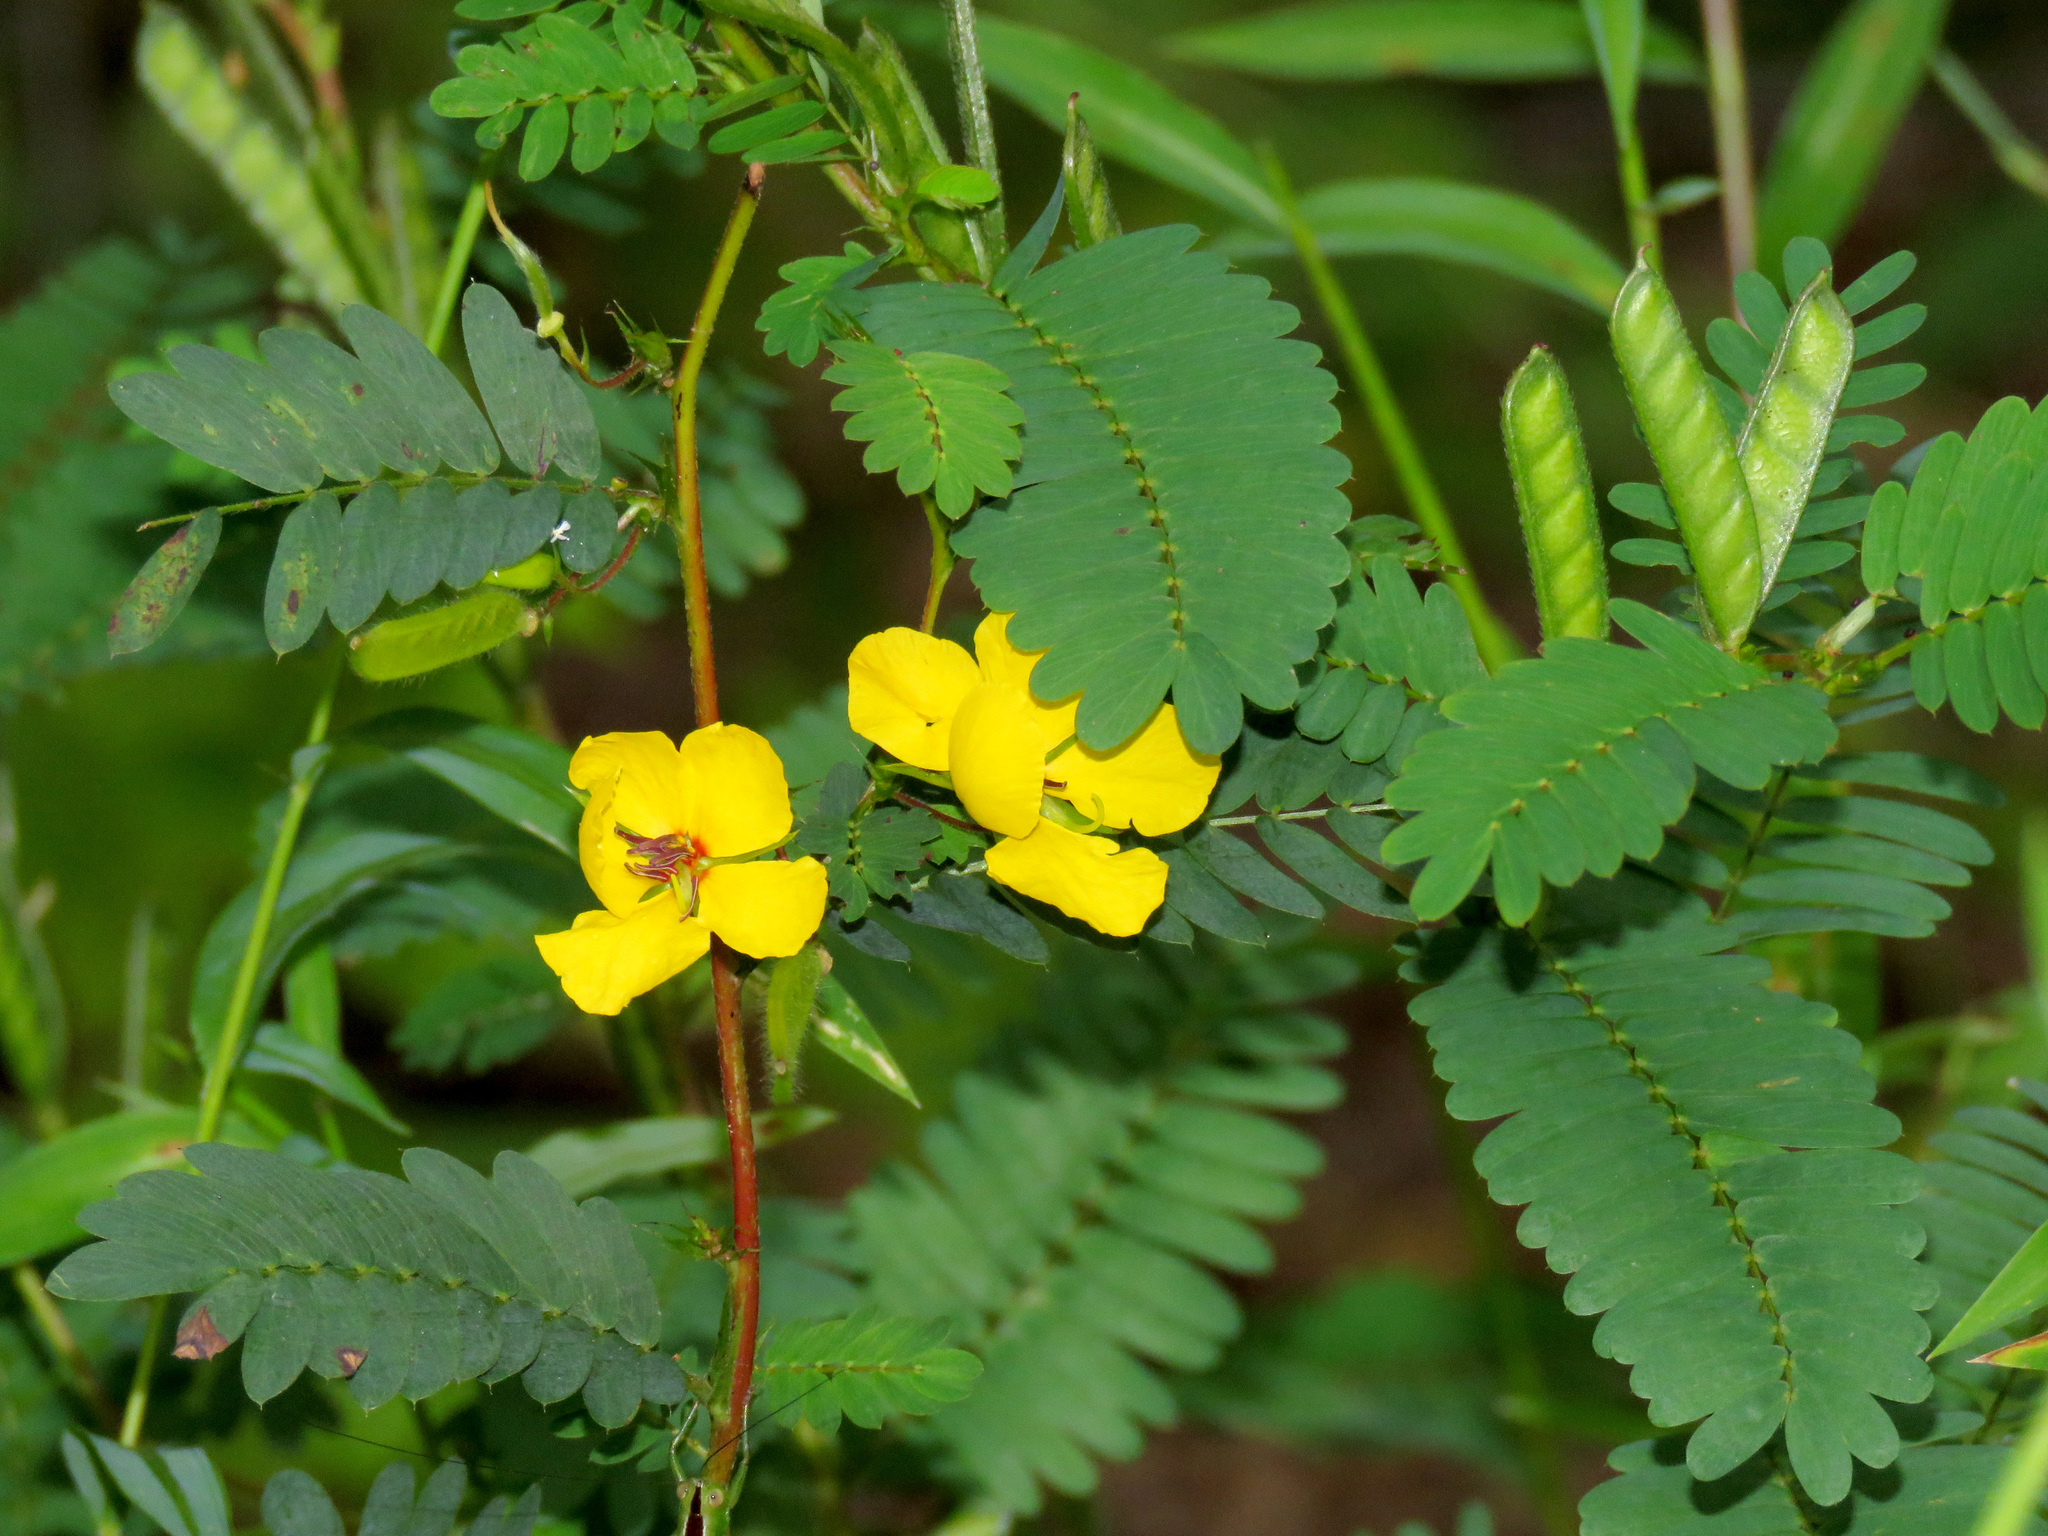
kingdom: Plantae
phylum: Tracheophyta
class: Magnoliopsida
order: Fabales
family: Fabaceae
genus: Chamaecrista
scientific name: Chamaecrista fasciculata
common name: Golden cassia
